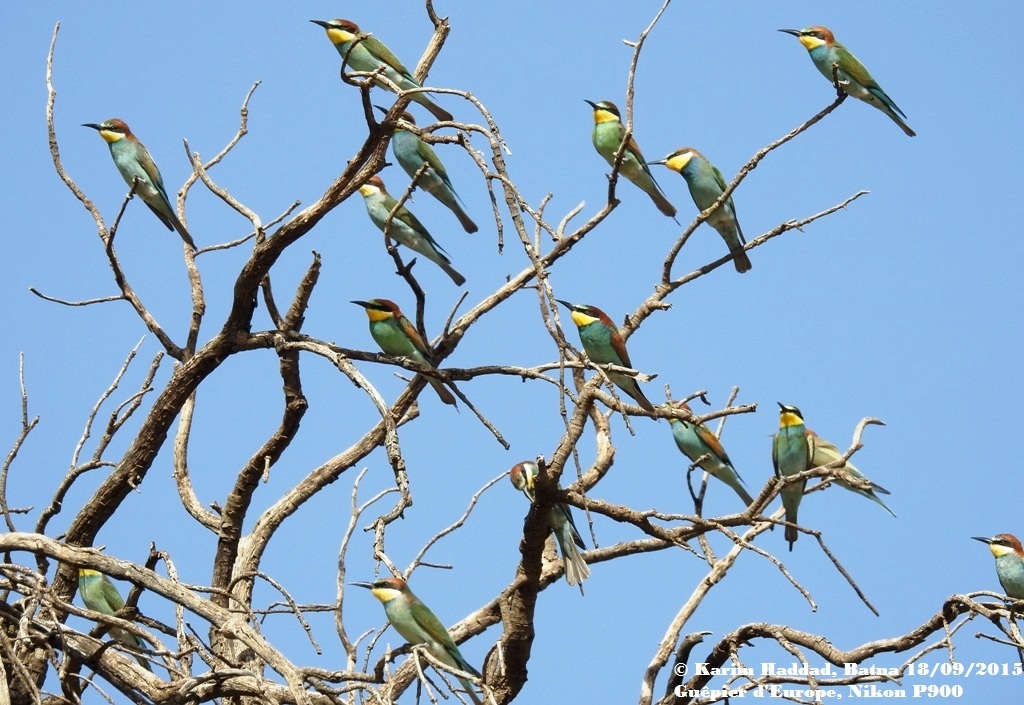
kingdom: Animalia
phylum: Chordata
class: Aves
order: Coraciiformes
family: Meropidae
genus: Merops
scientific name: Merops apiaster
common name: European bee-eater
